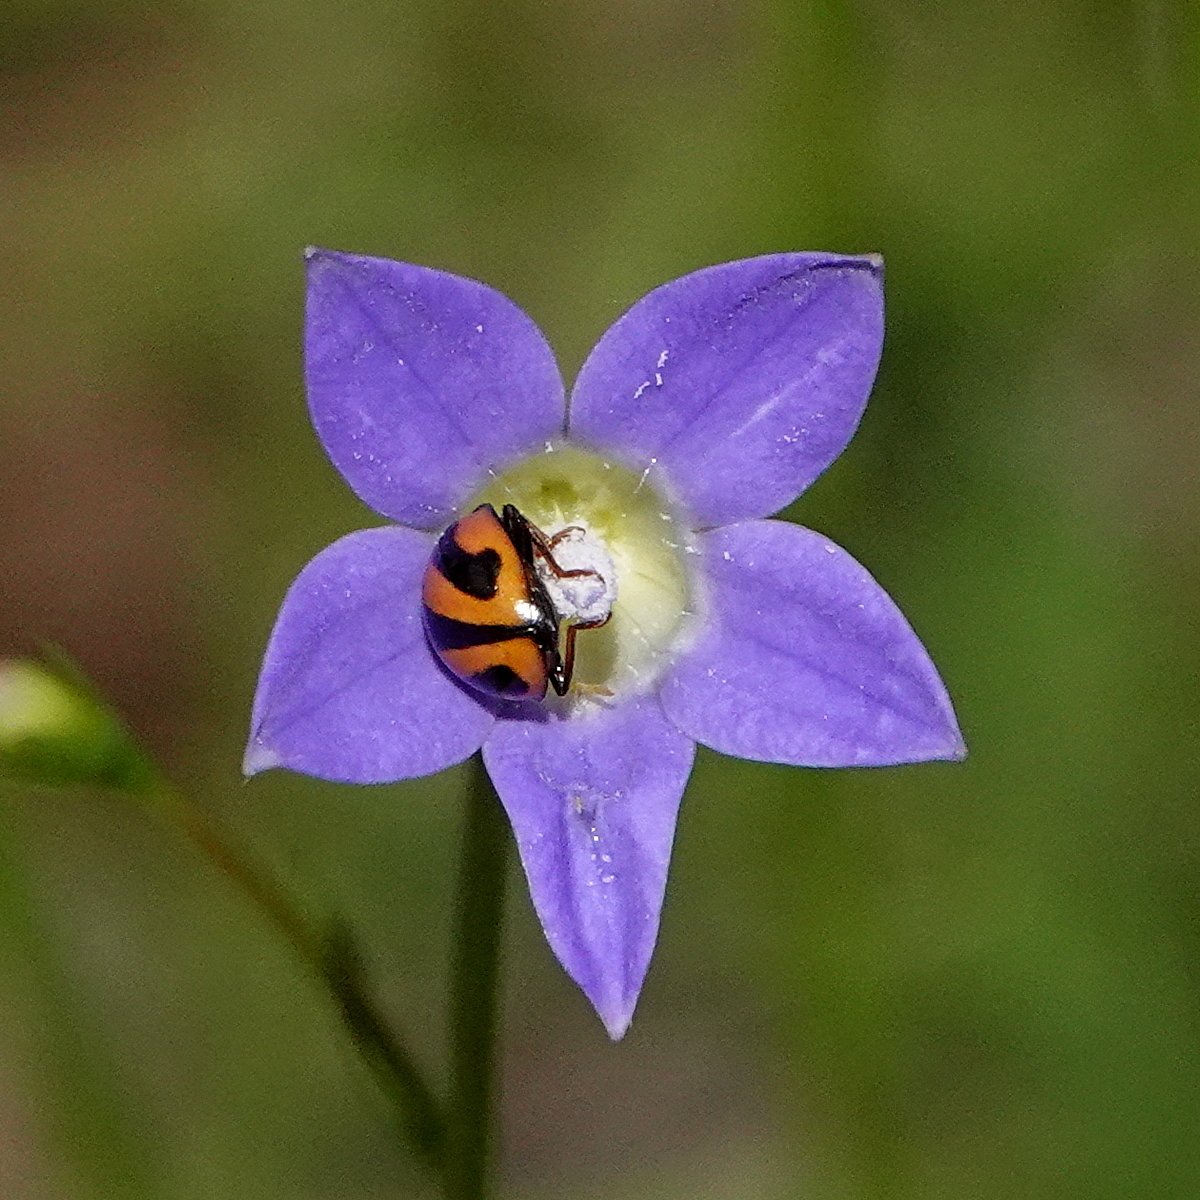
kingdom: Animalia
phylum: Arthropoda
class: Insecta
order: Coleoptera
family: Coccinellidae
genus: Micraspis
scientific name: Micraspis frenata
